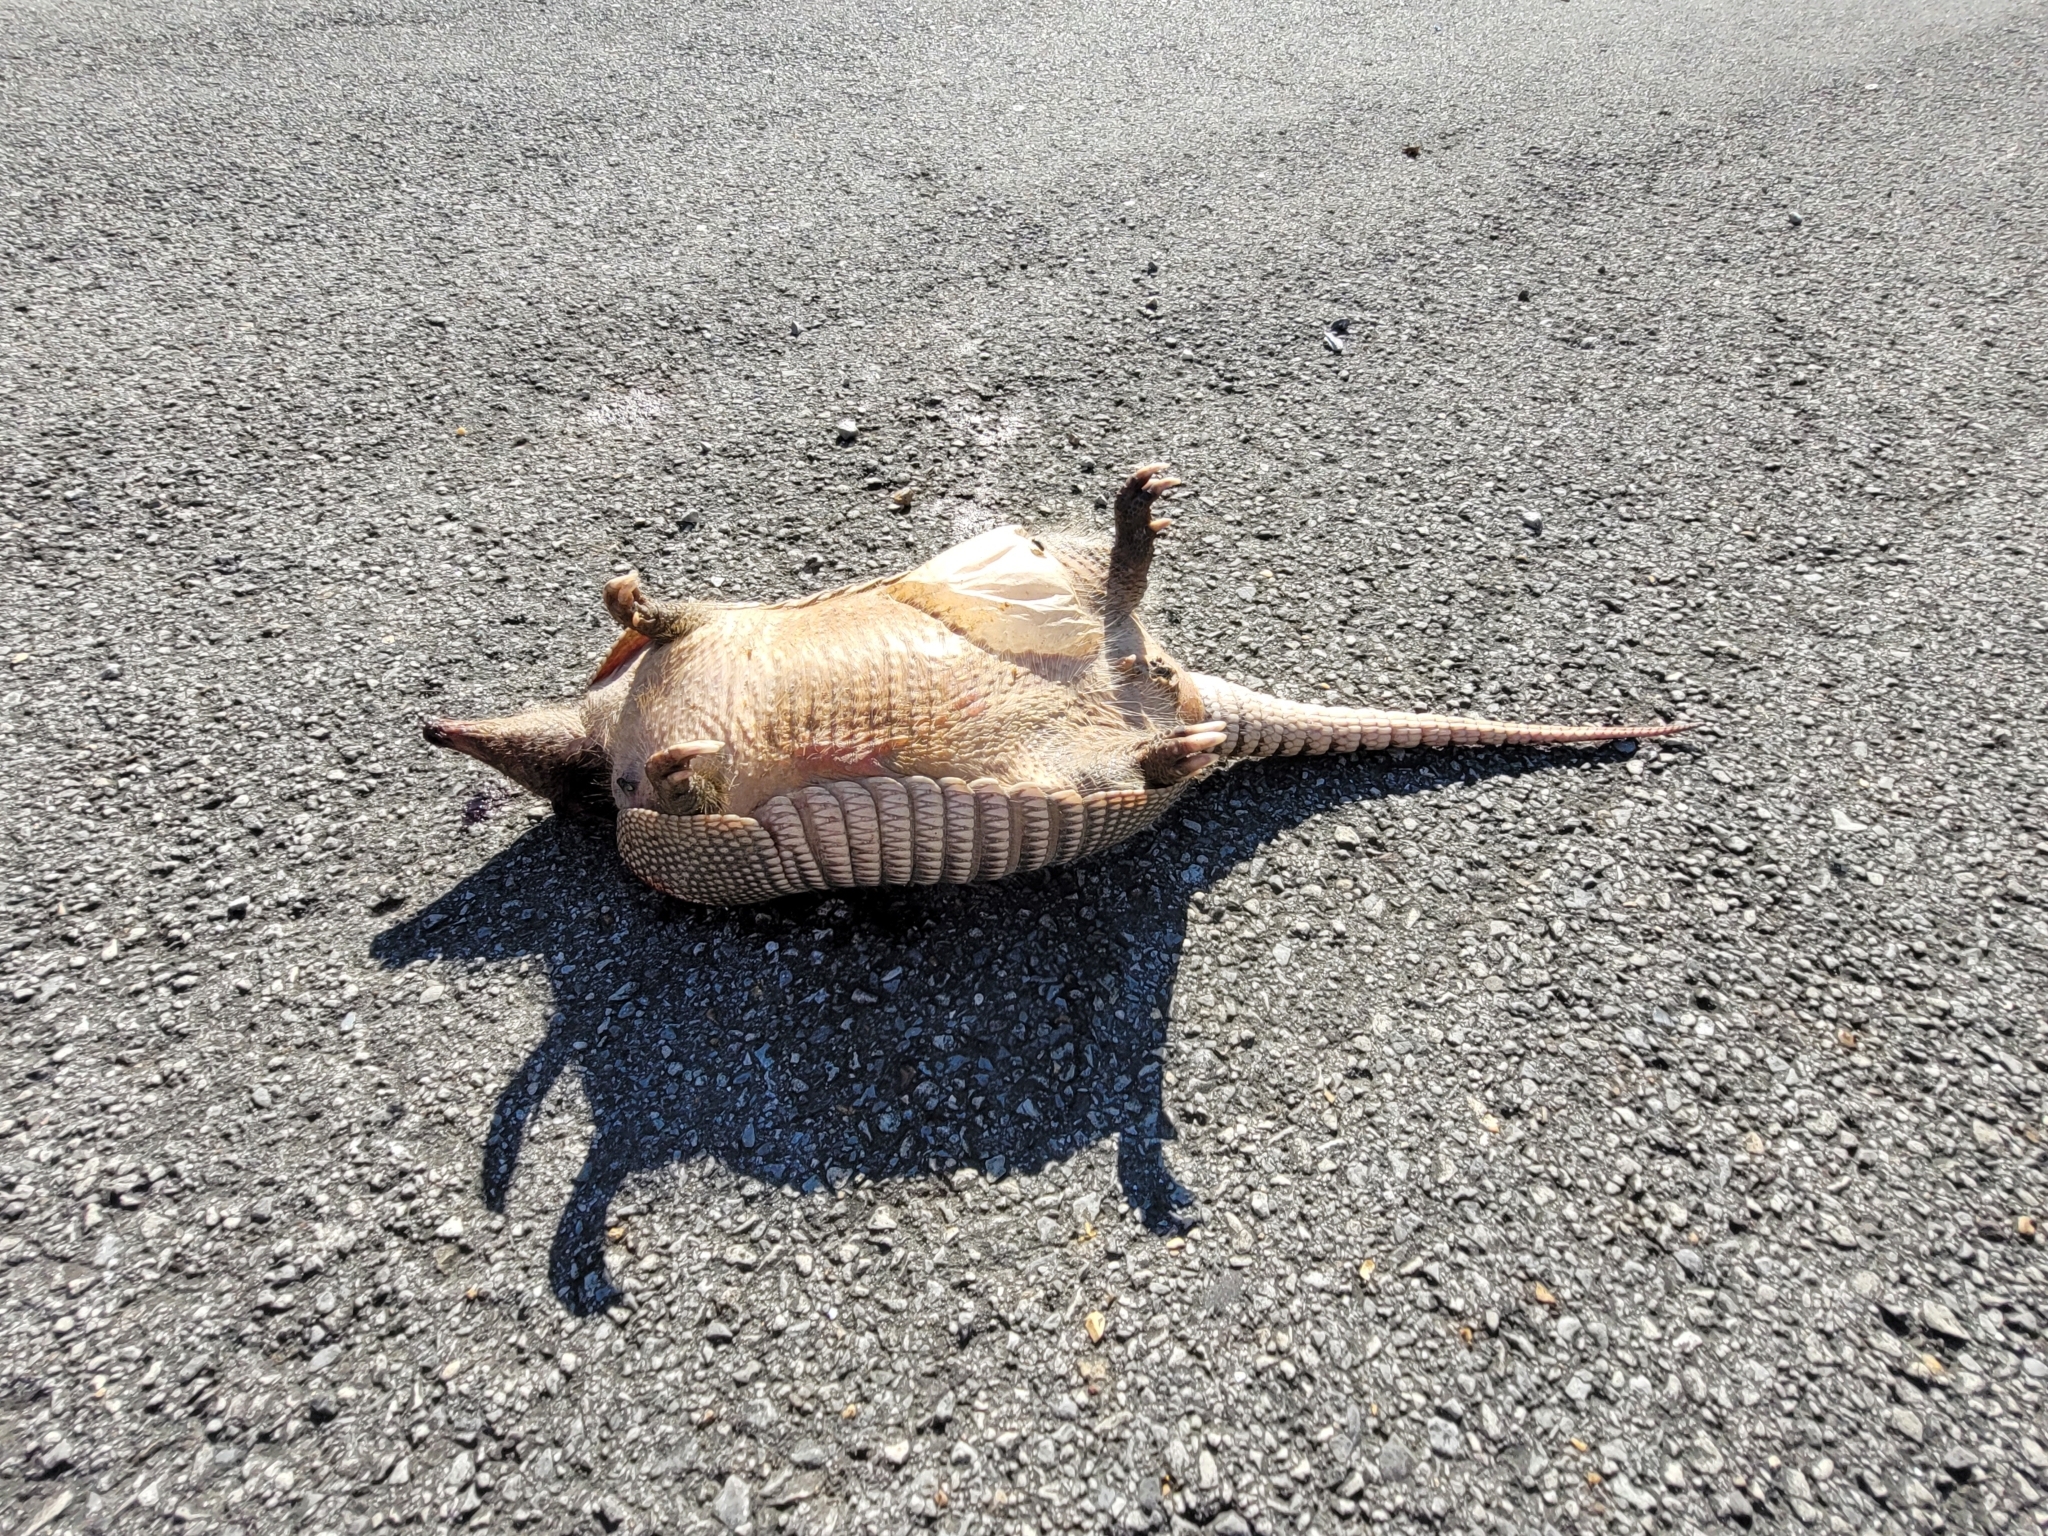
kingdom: Animalia
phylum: Chordata
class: Mammalia
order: Cingulata
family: Dasypodidae
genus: Dasypus
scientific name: Dasypus novemcinctus
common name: Nine-banded armadillo
